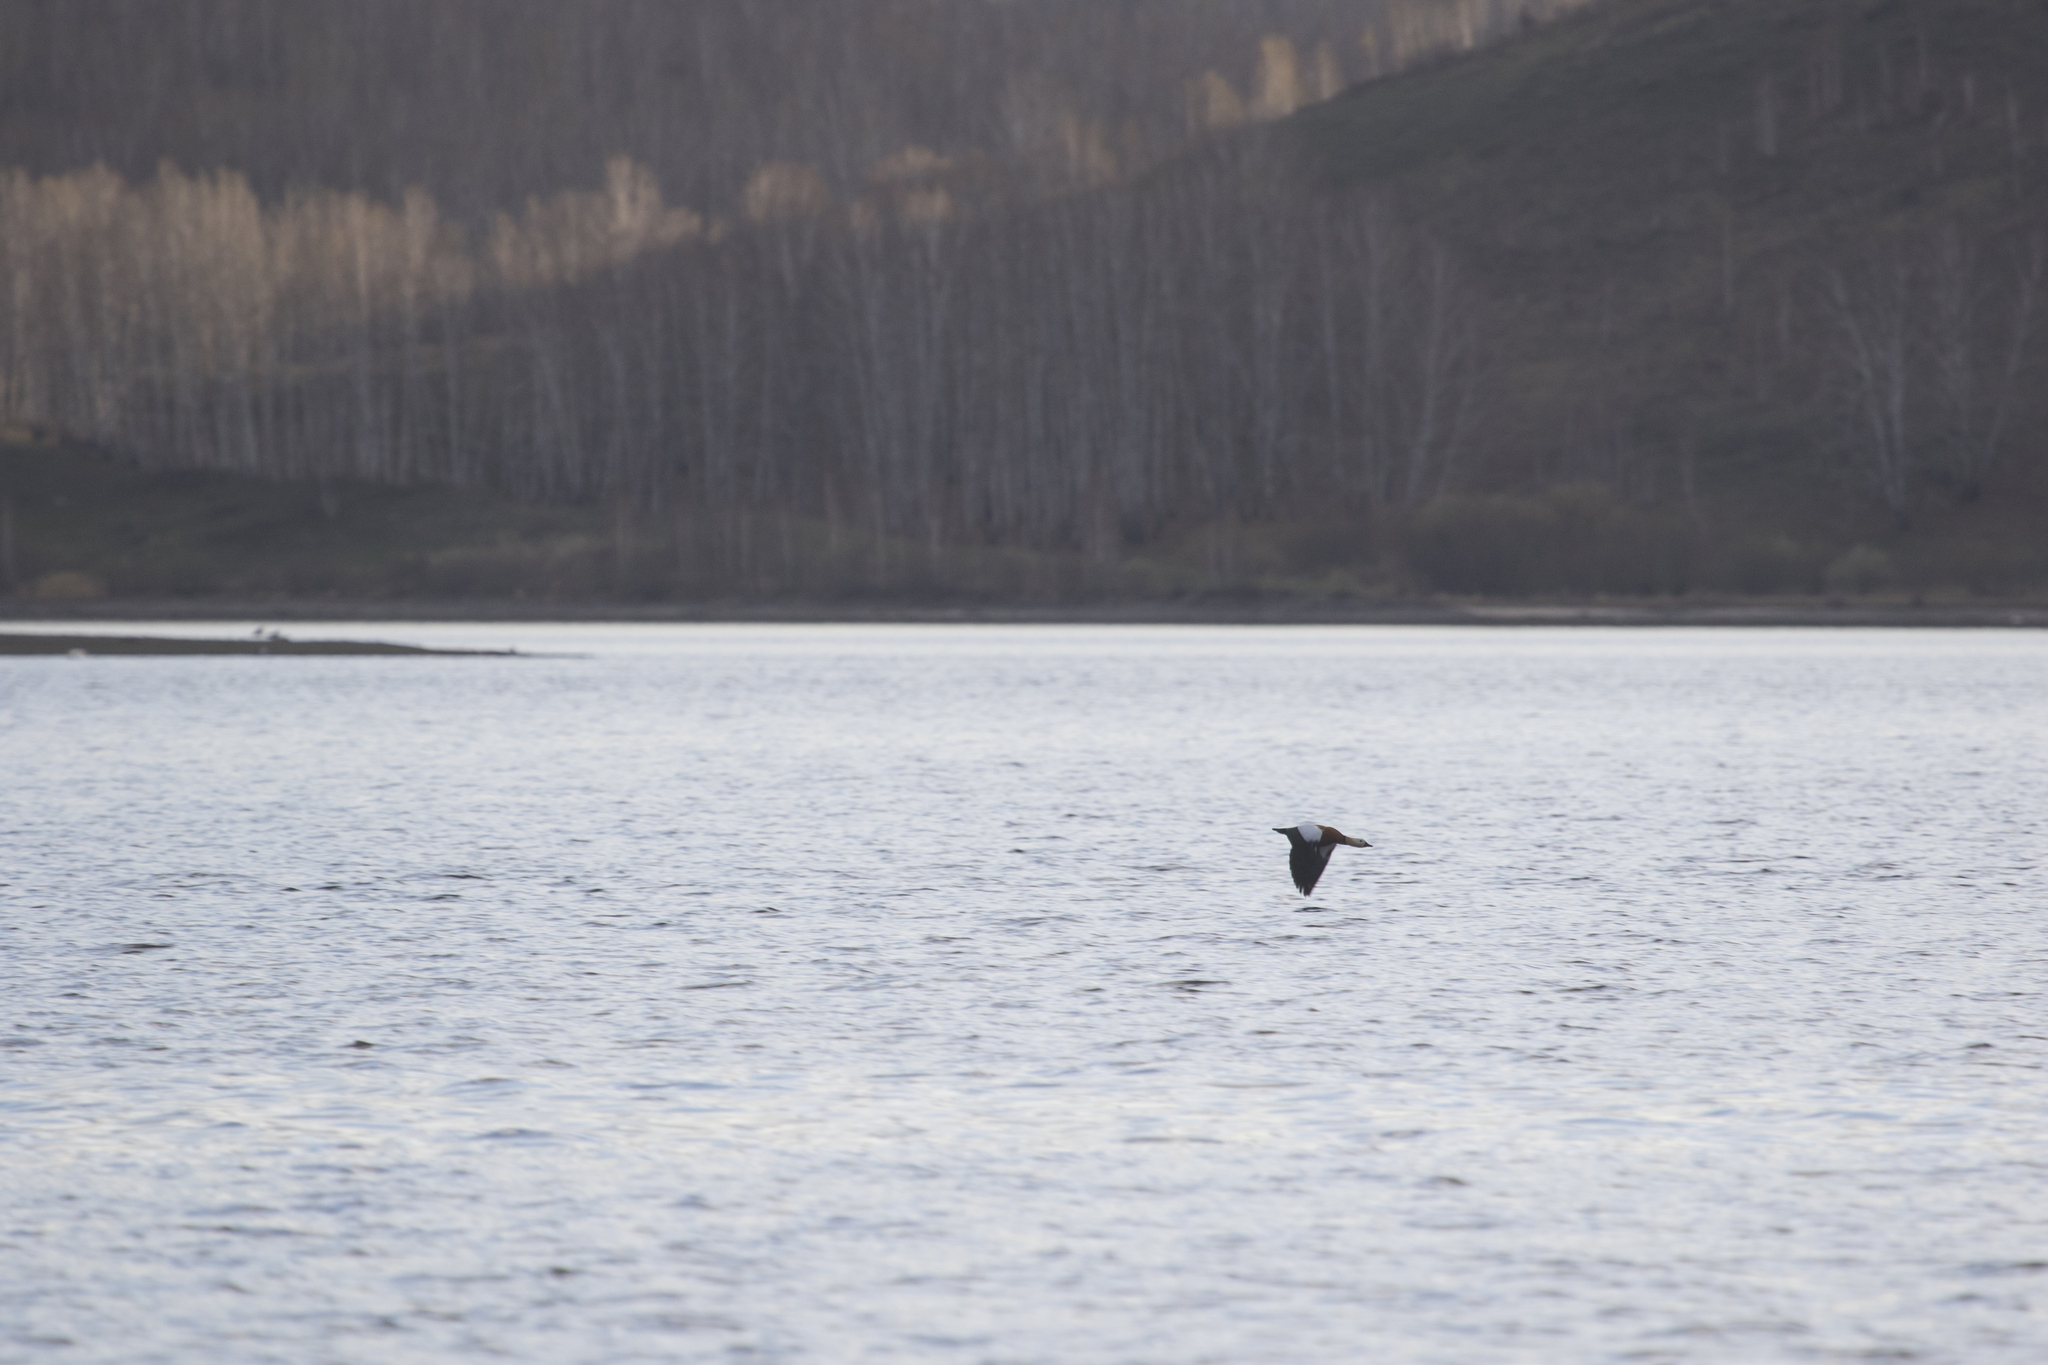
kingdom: Animalia
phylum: Chordata
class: Aves
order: Anseriformes
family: Anatidae
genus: Tadorna
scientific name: Tadorna ferruginea
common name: Ruddy shelduck
